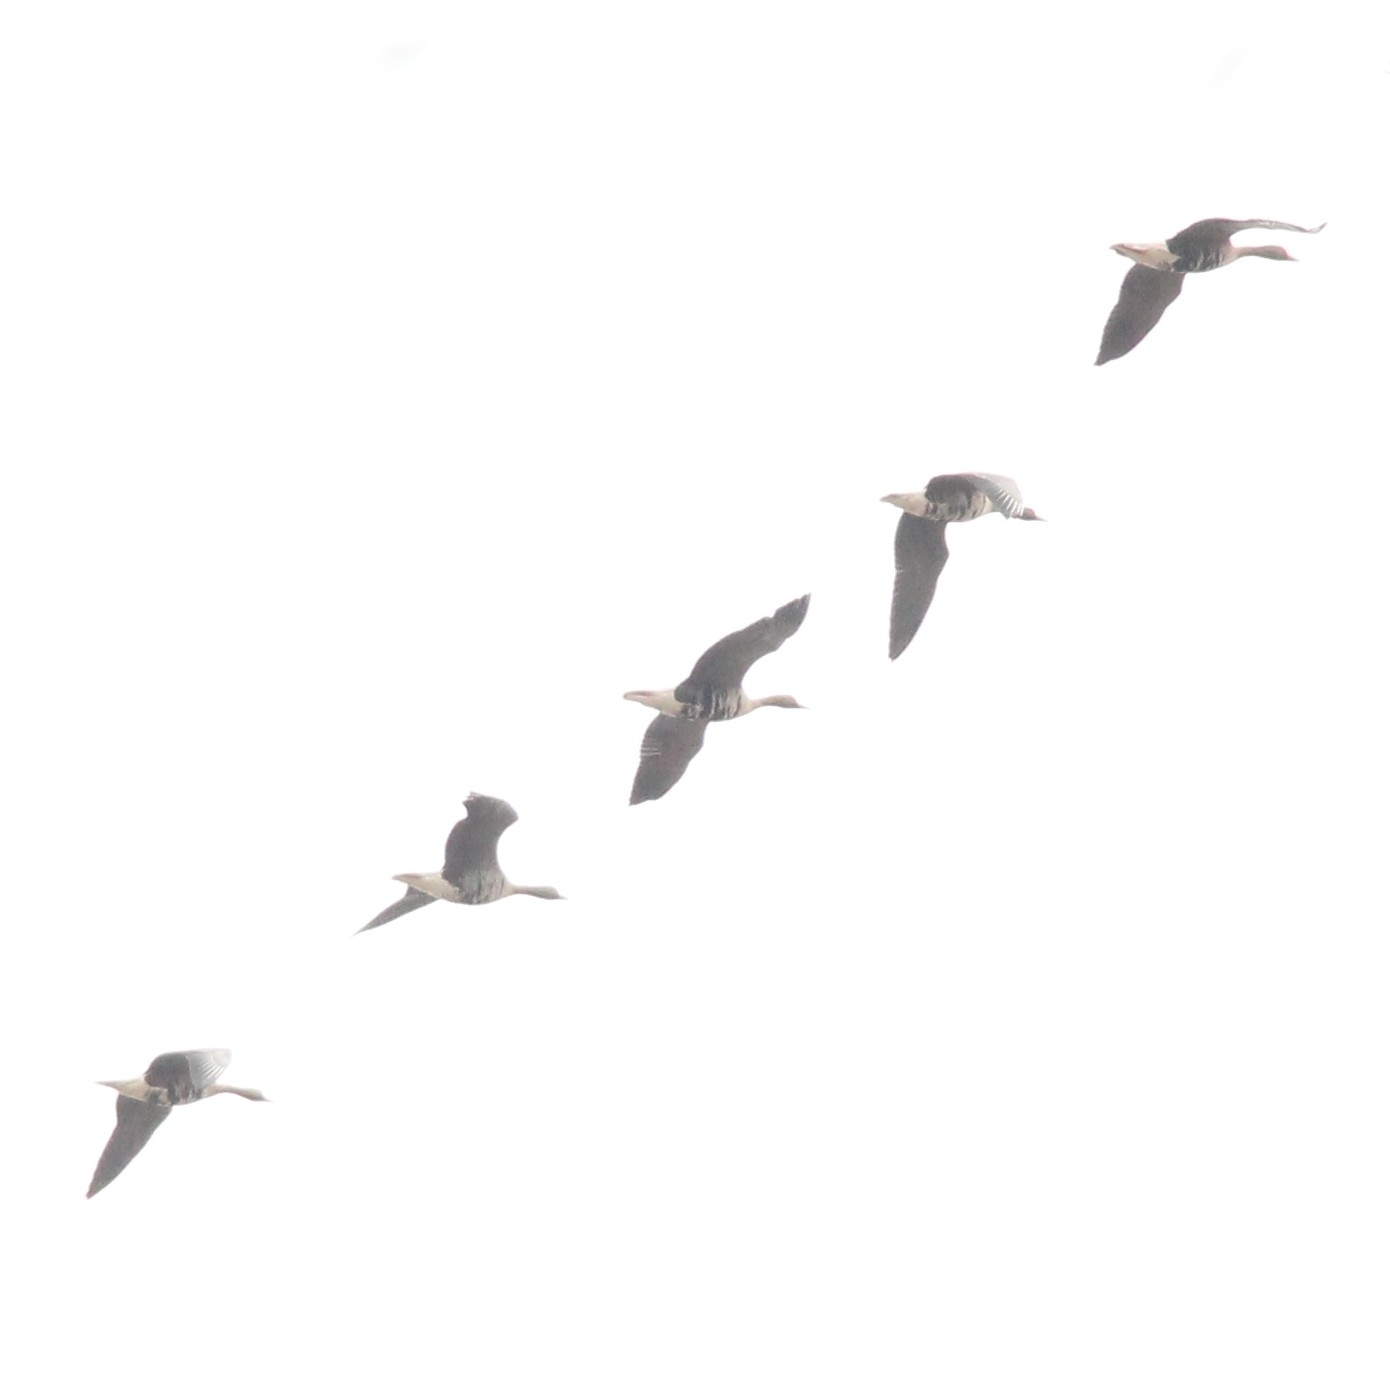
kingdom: Animalia
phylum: Chordata
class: Aves
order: Anseriformes
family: Anatidae
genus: Anser
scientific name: Anser albifrons
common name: Greater white-fronted goose
